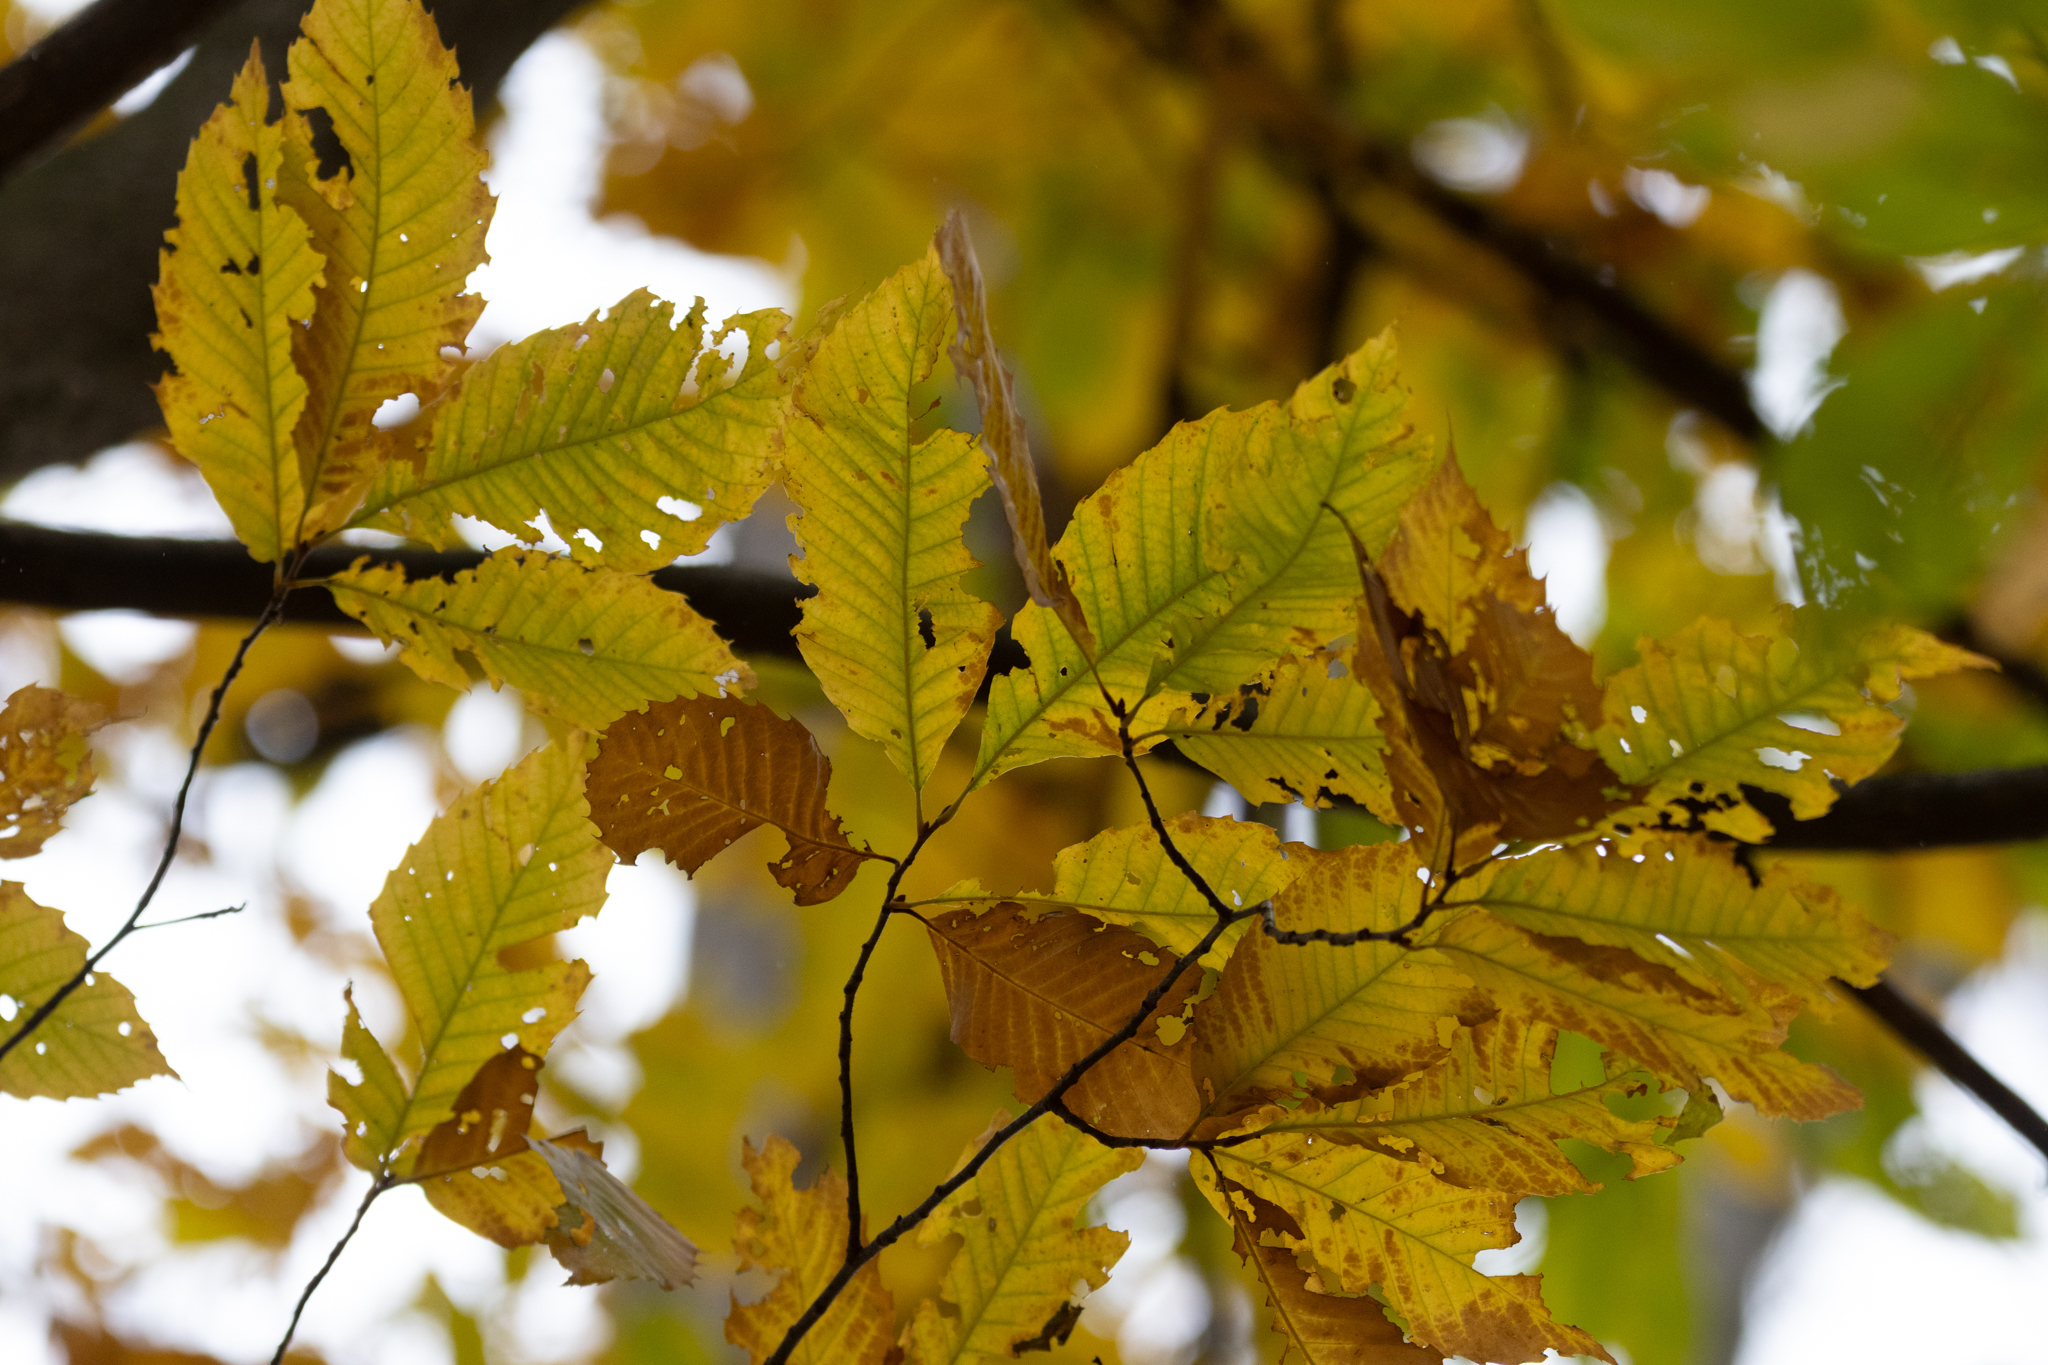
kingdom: Plantae
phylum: Tracheophyta
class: Magnoliopsida
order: Fagales
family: Fagaceae
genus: Castanea
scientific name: Castanea dentata
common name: American chestnut
